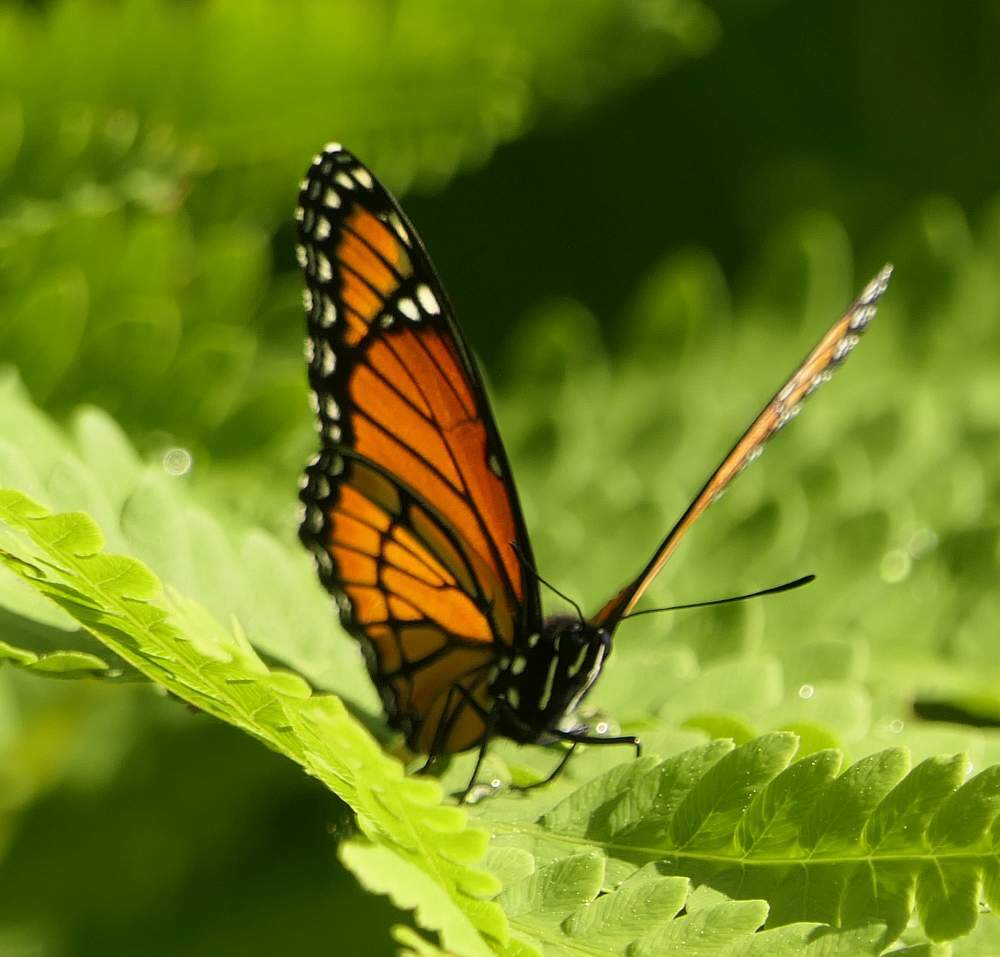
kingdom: Animalia
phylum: Arthropoda
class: Insecta
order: Lepidoptera
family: Nymphalidae
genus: Limenitis
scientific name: Limenitis archippus
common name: Viceroy
